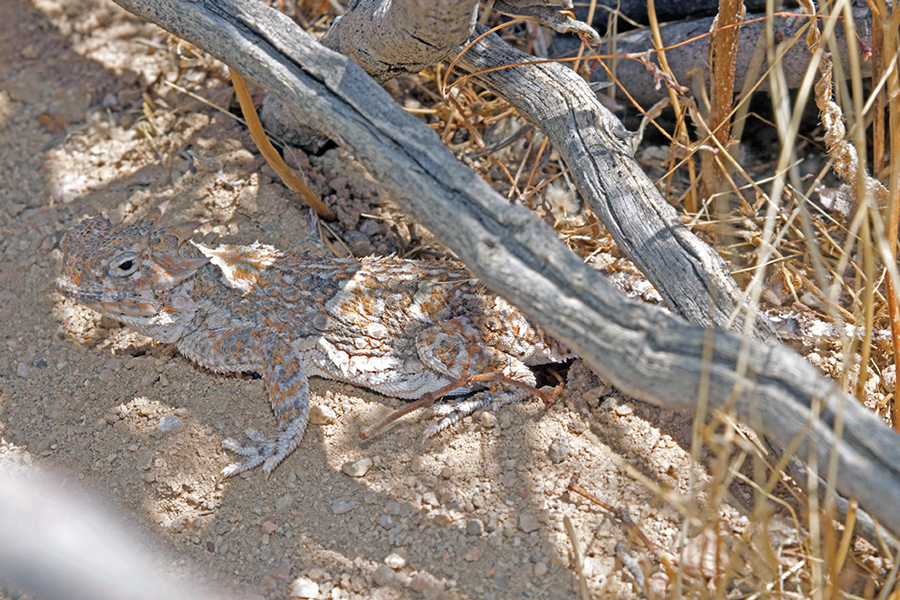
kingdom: Animalia
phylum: Chordata
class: Squamata
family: Phrynosomatidae
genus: Phrynosoma
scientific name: Phrynosoma platyrhinos
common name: Desert horned lizard
